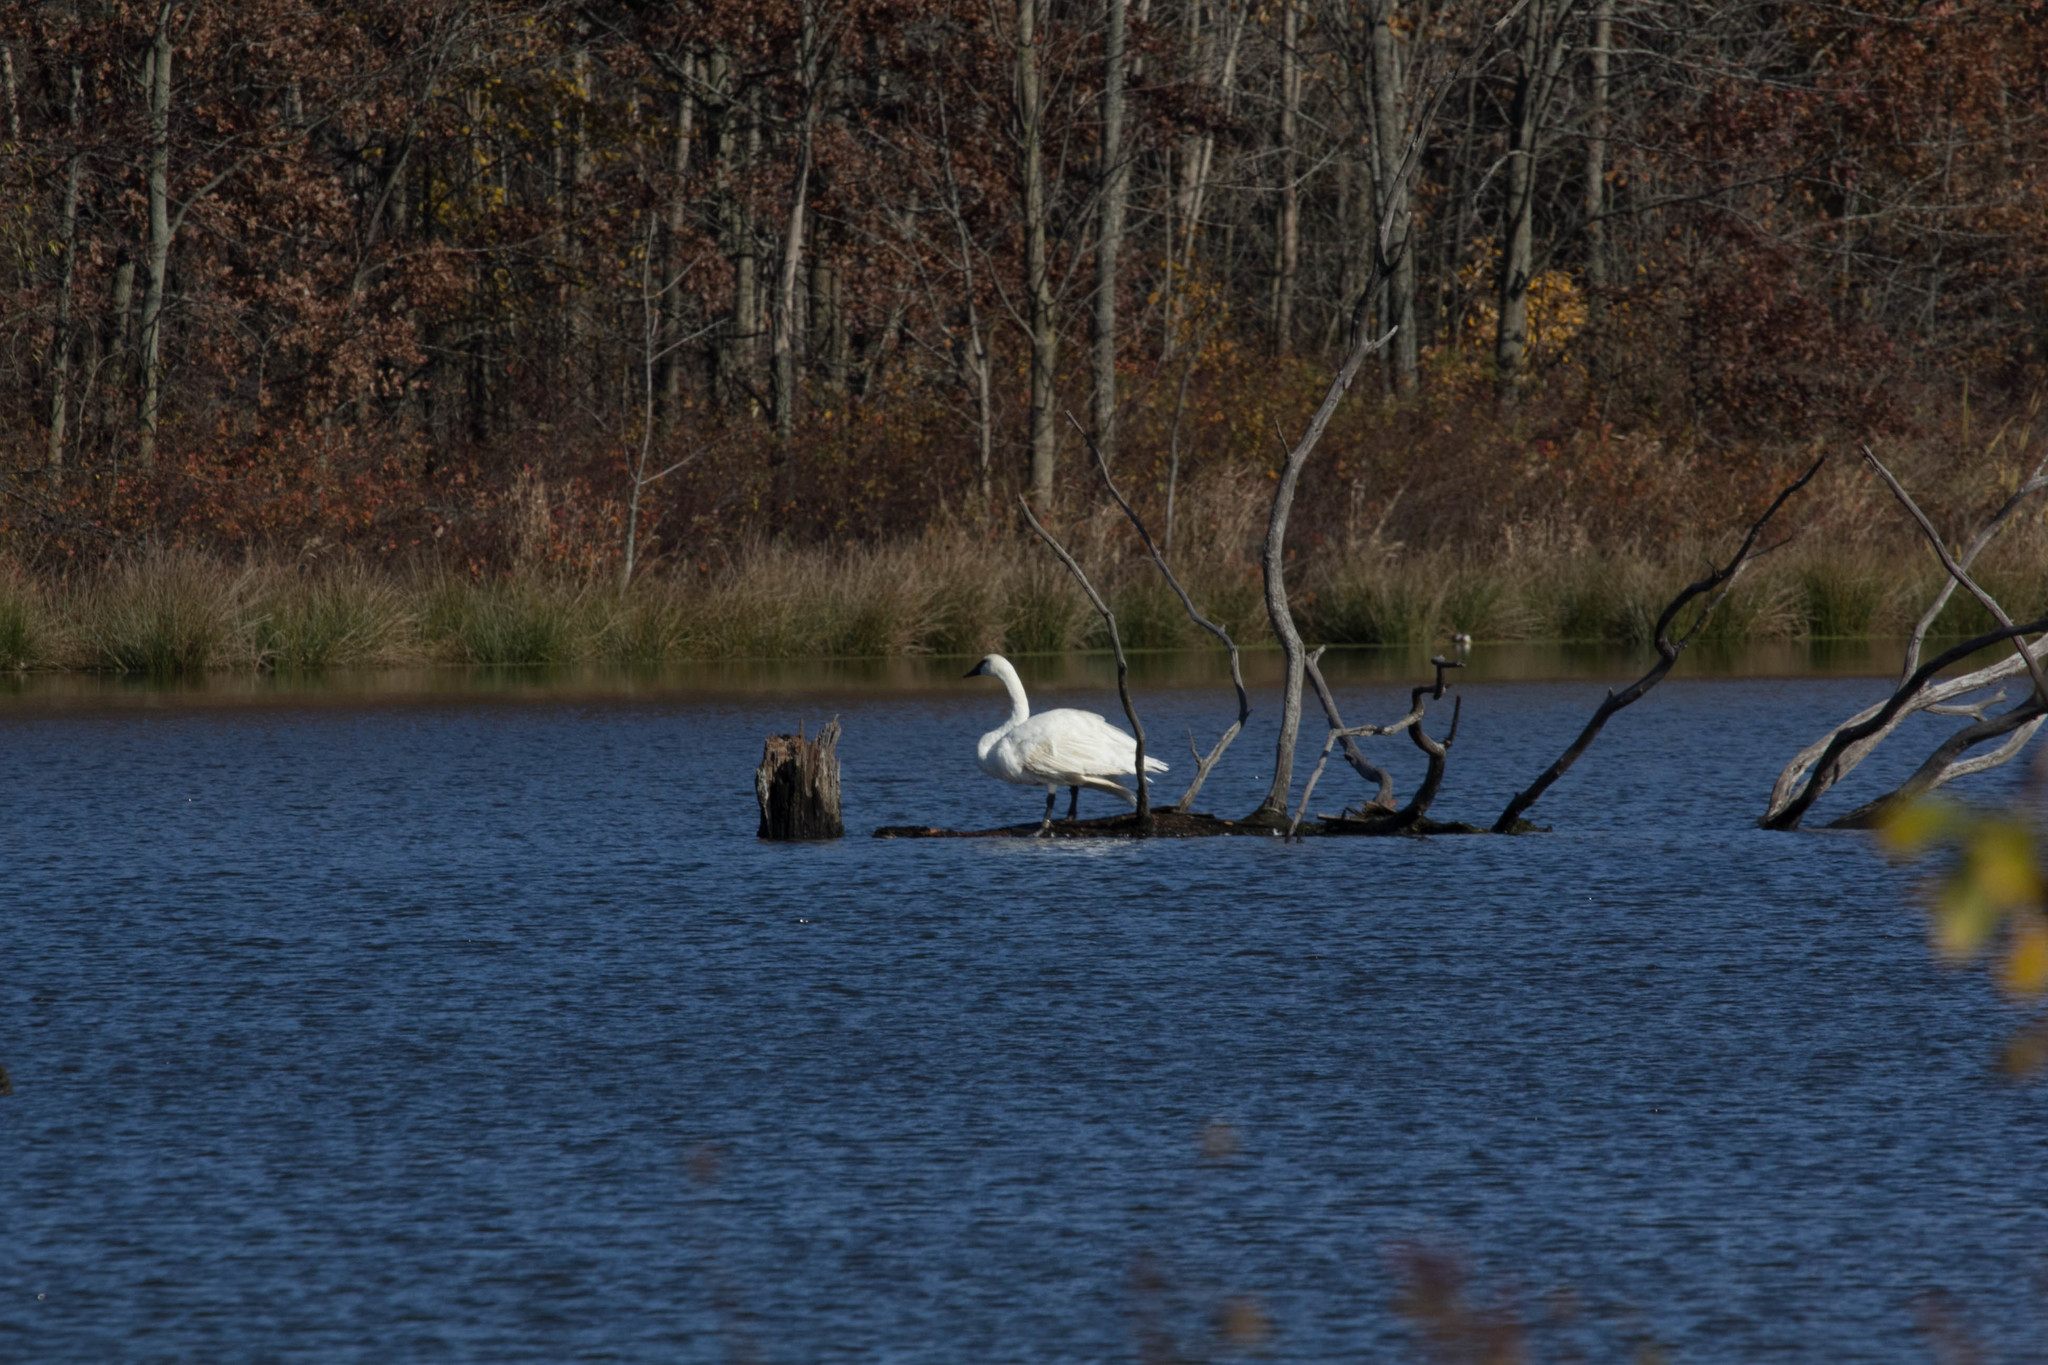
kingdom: Animalia
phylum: Chordata
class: Aves
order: Anseriformes
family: Anatidae
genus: Cygnus
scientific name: Cygnus buccinator
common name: Trumpeter swan
